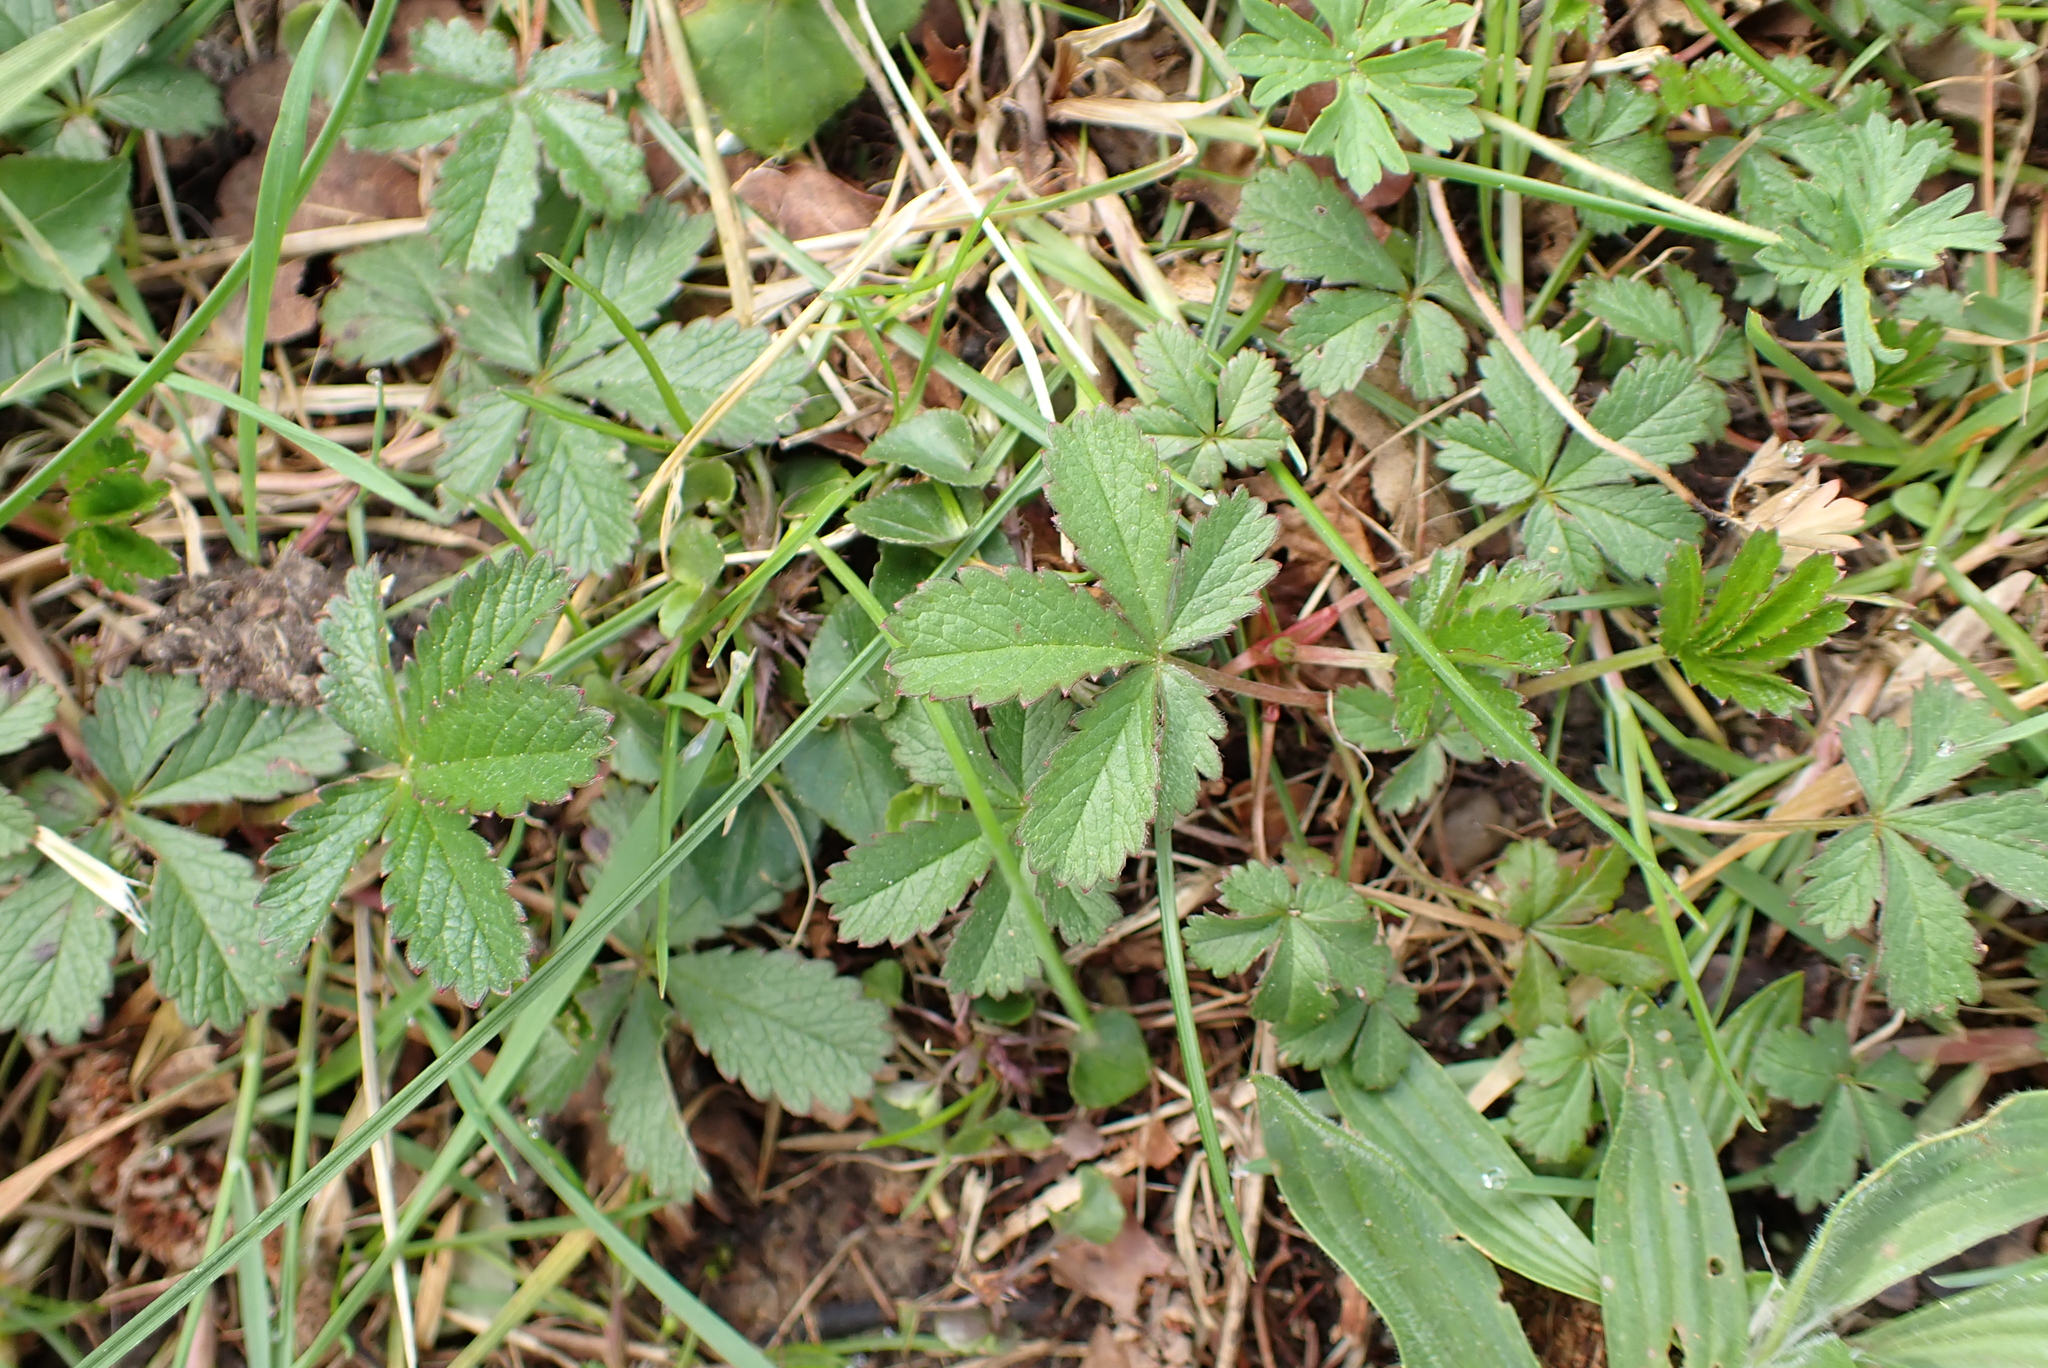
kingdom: Plantae
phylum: Tracheophyta
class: Magnoliopsida
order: Rosales
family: Rosaceae
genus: Potentilla
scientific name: Potentilla reptans
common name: Creeping cinquefoil
